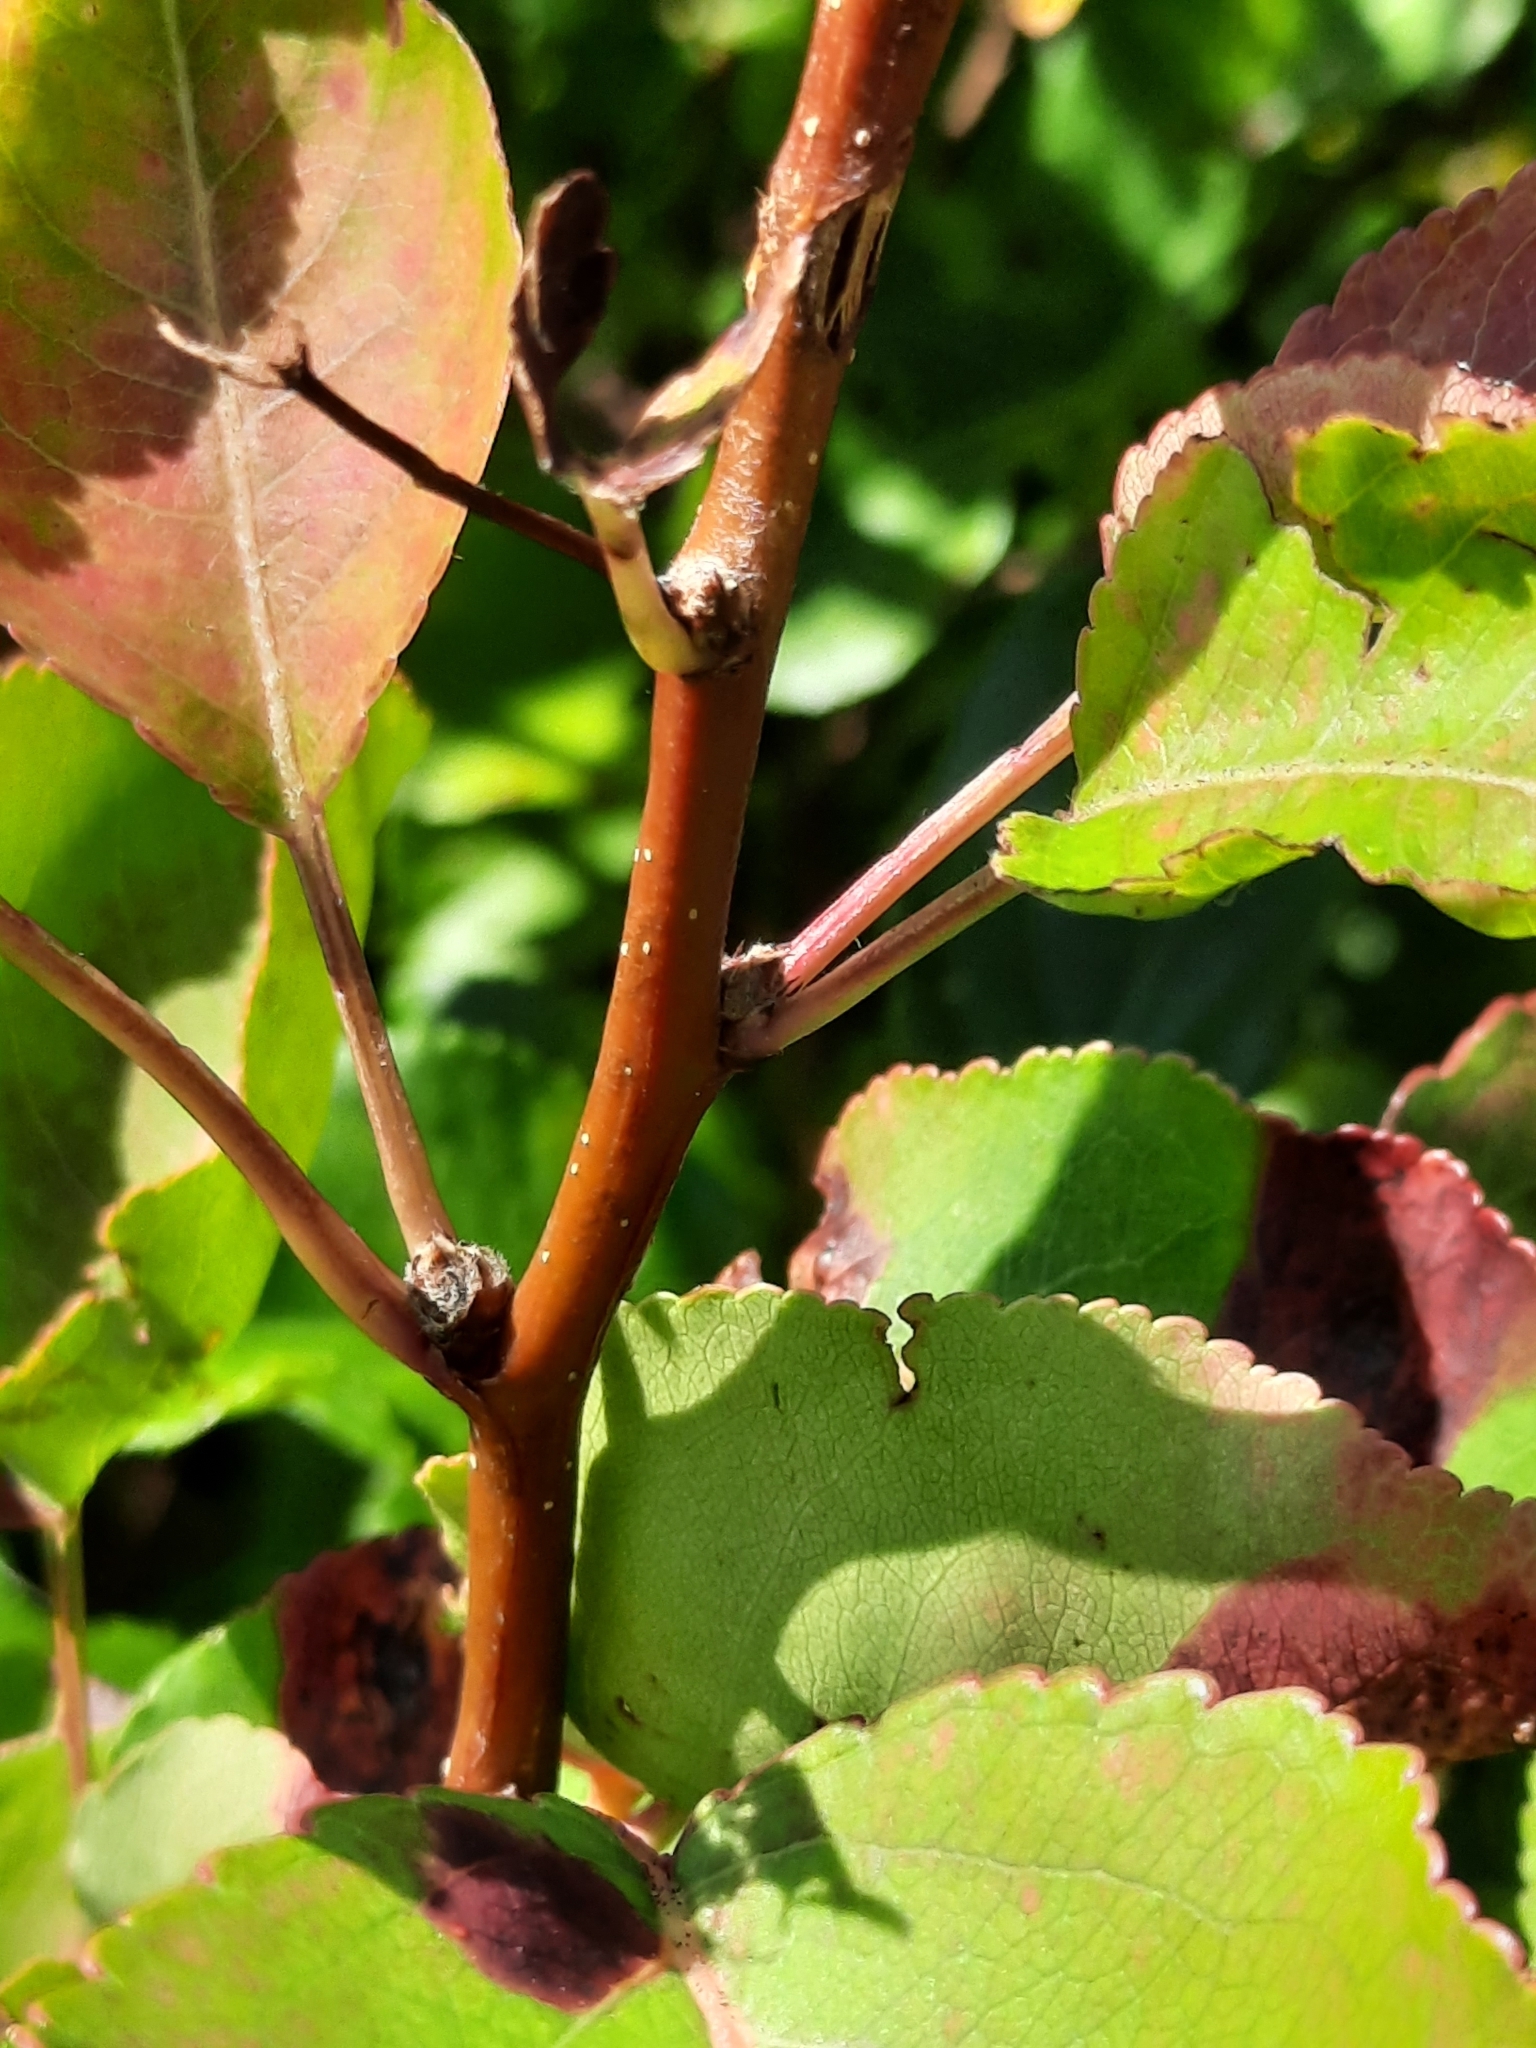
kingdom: Plantae
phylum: Tracheophyta
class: Magnoliopsida
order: Rosales
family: Rosaceae
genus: Pyrus
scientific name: Pyrus calleryana
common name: Callery pear
